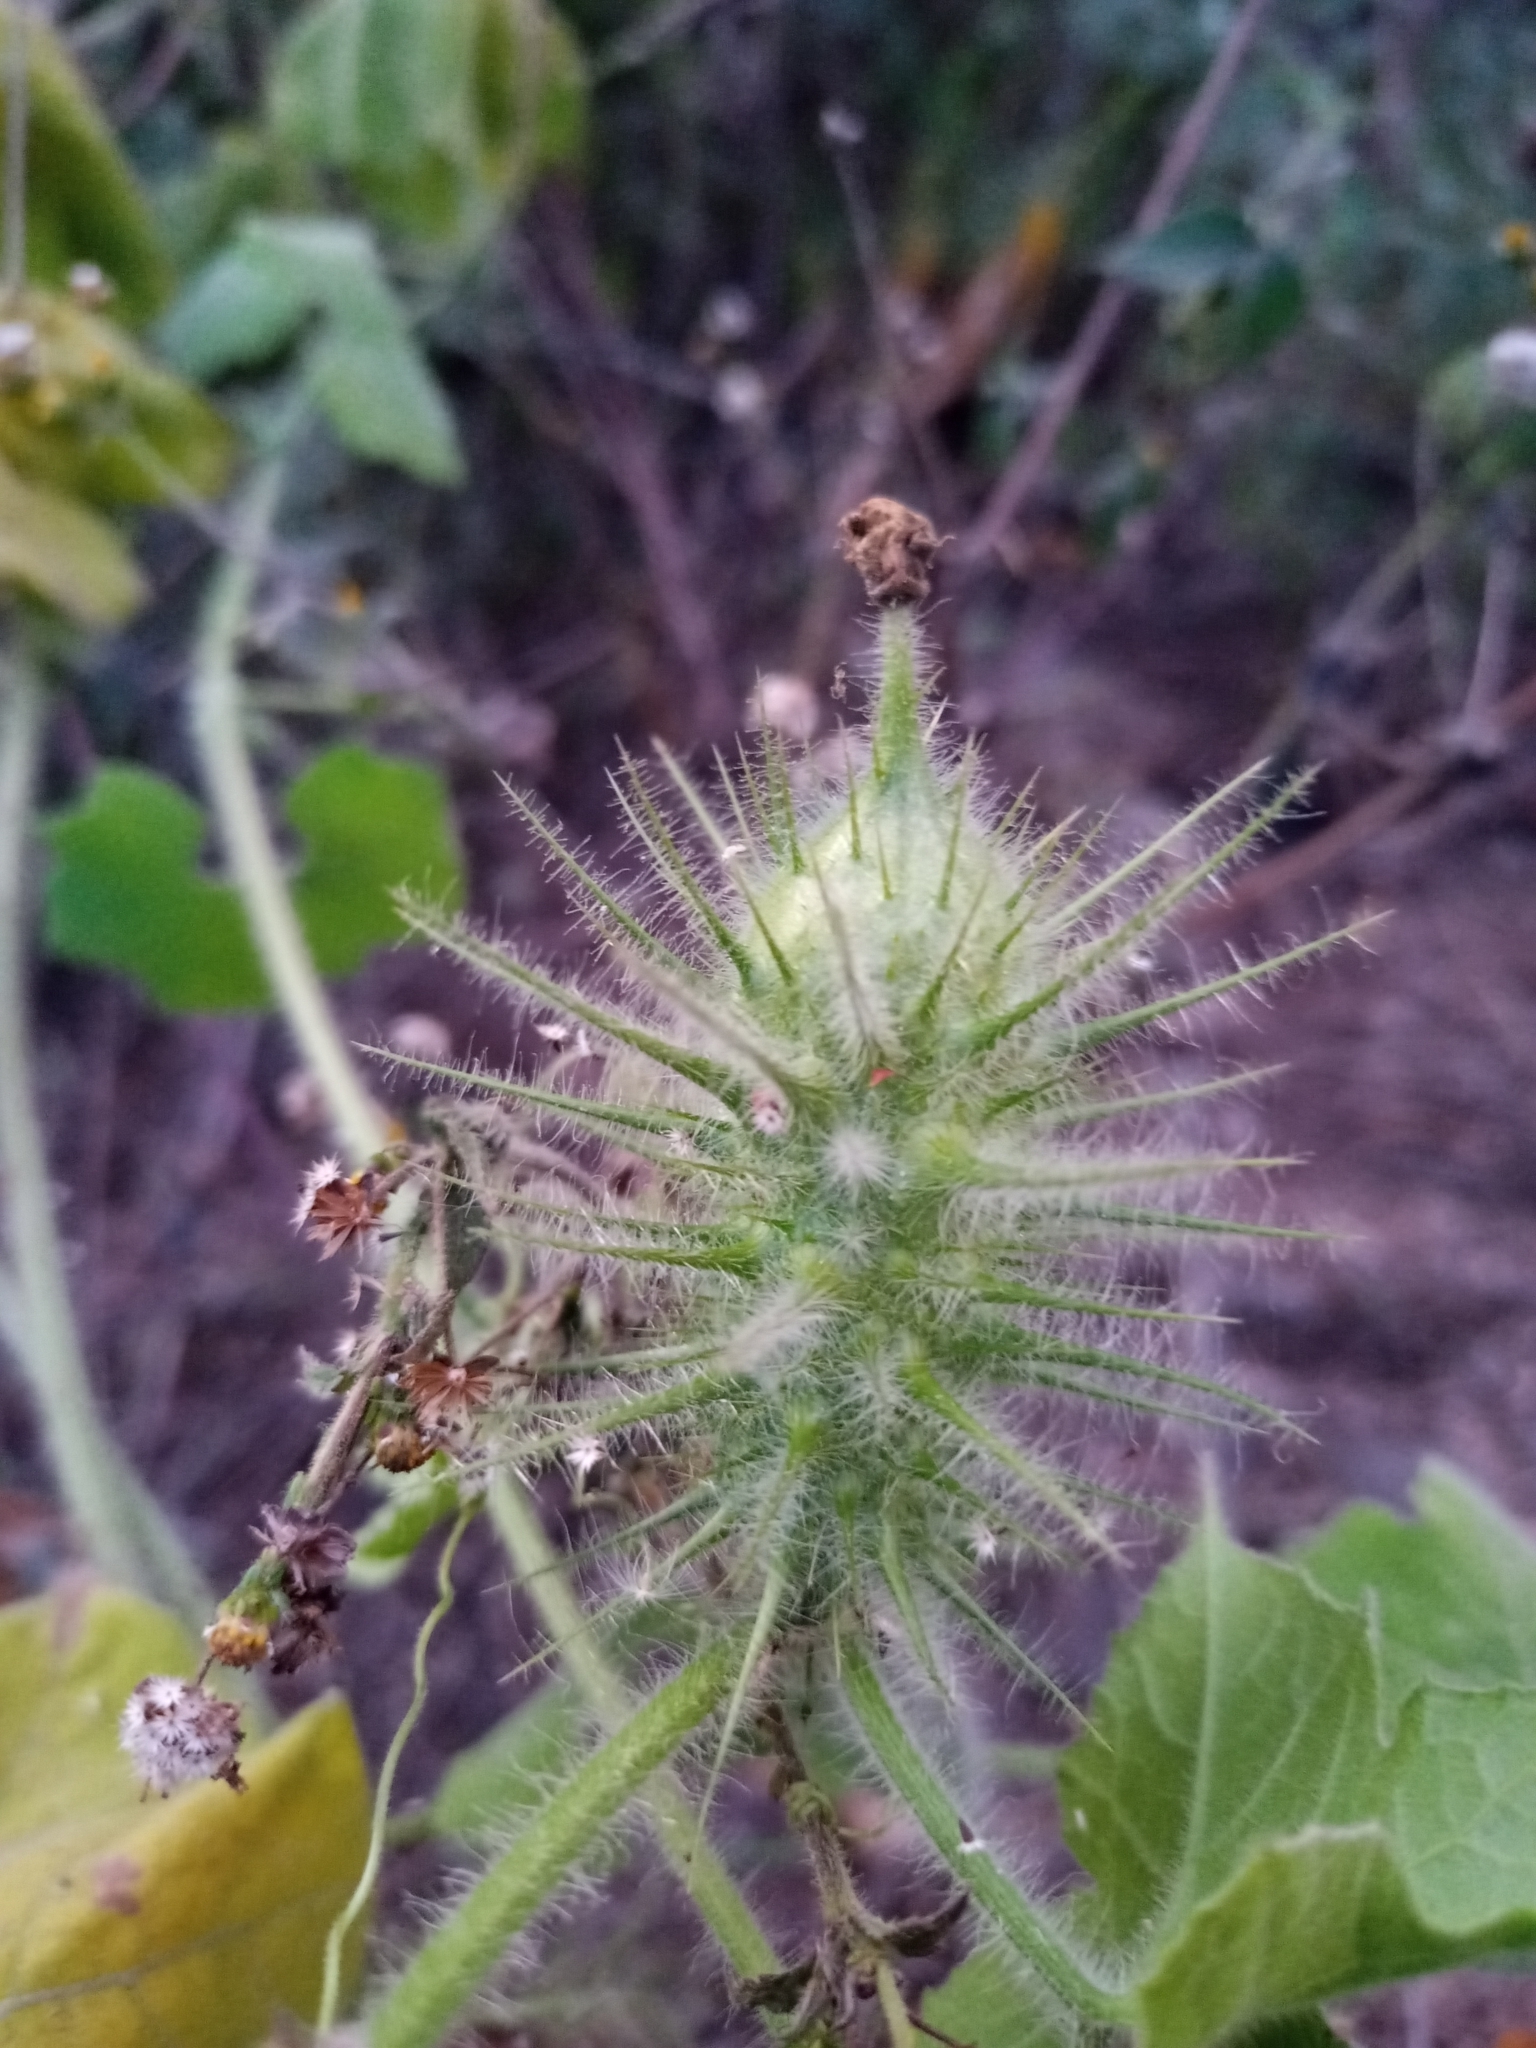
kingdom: Plantae
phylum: Tracheophyta
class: Magnoliopsida
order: Cucurbitales
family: Cucurbitaceae
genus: Echinopepon
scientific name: Echinopepon racemosus
